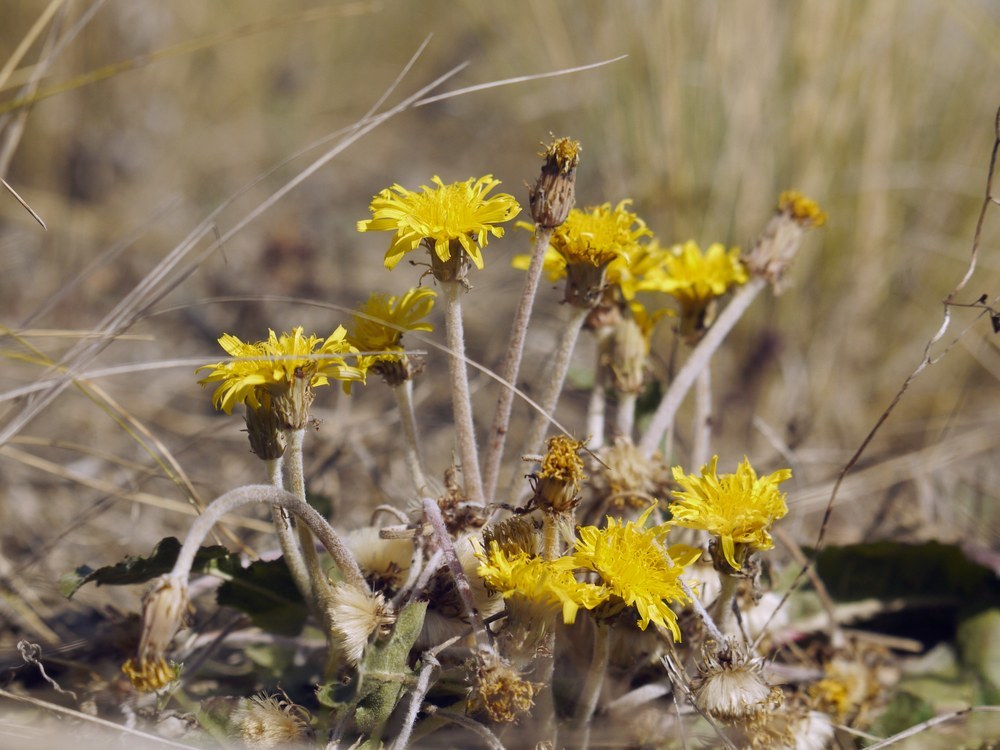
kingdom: Plantae
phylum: Tracheophyta
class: Magnoliopsida
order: Asterales
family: Asteraceae
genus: Taraxacum
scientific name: Taraxacum serotinum
